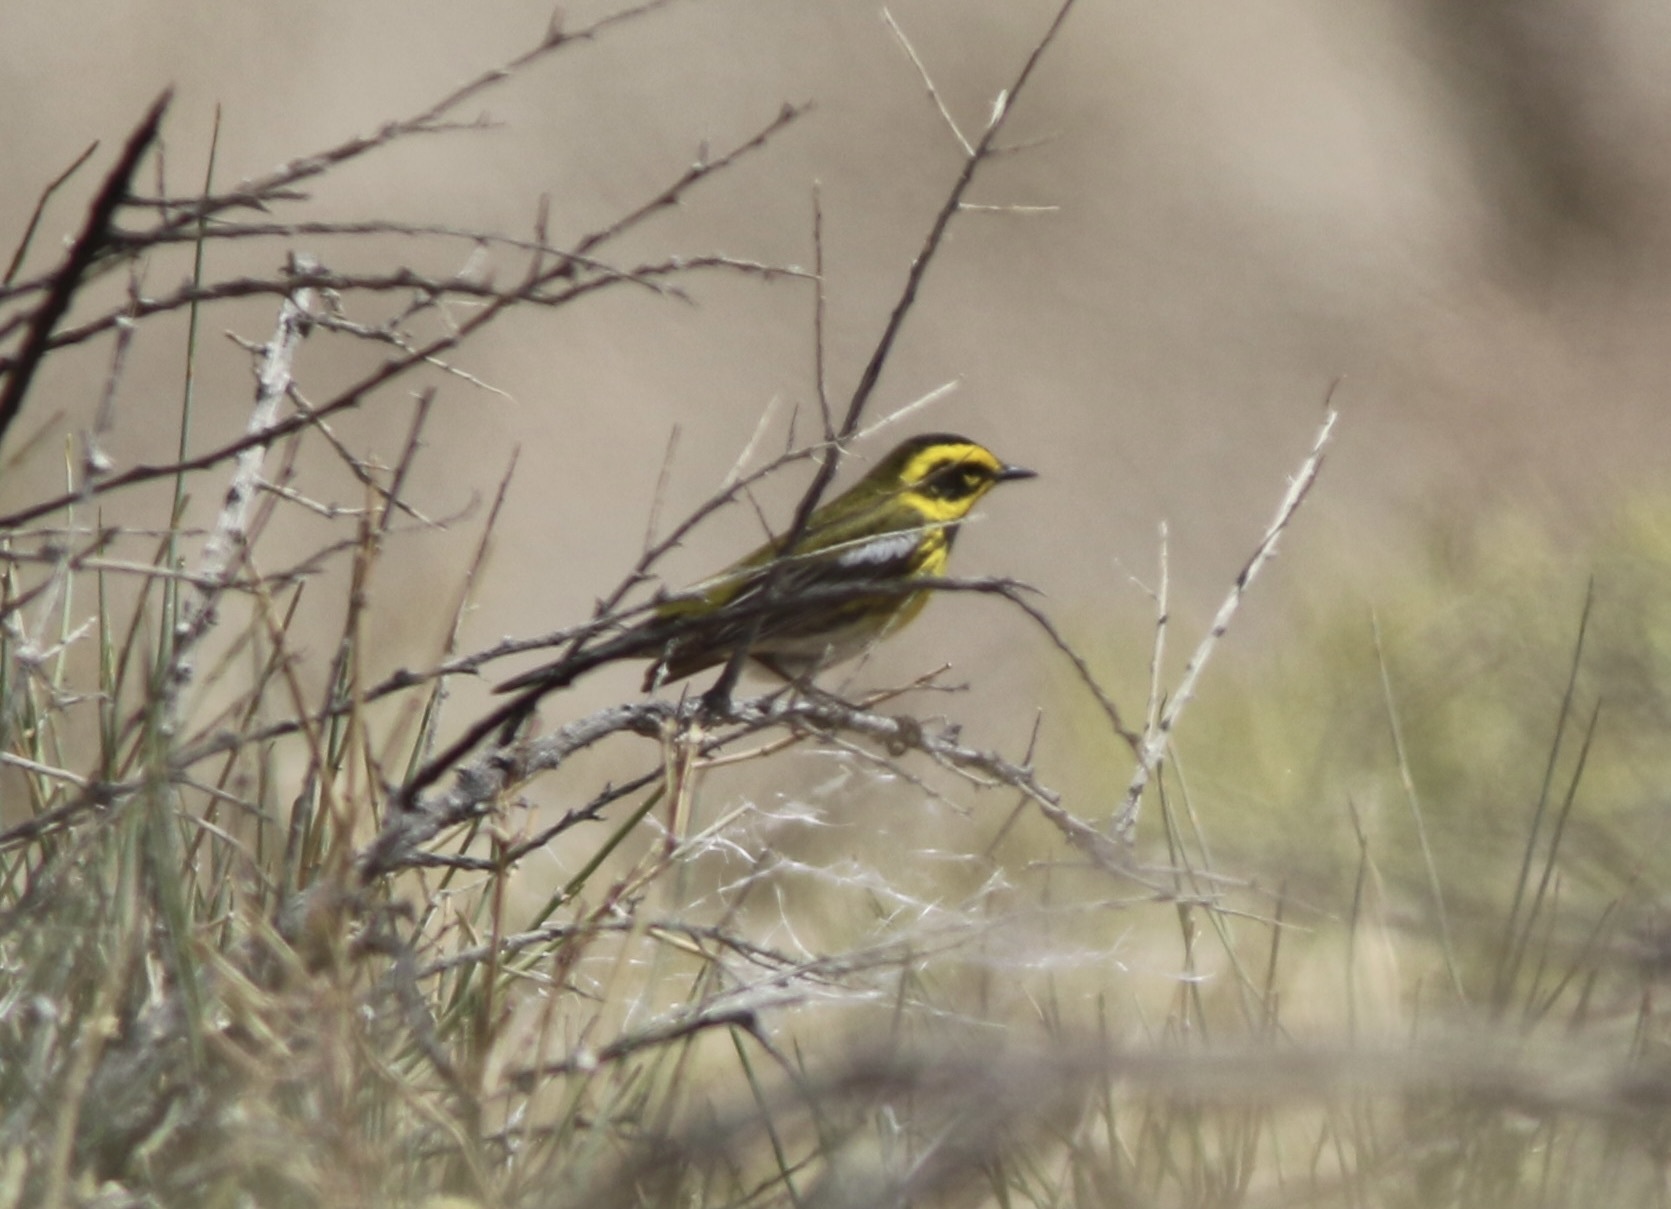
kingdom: Animalia
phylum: Chordata
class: Aves
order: Passeriformes
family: Parulidae
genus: Setophaga
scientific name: Setophaga townsendi
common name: Townsend's warbler
